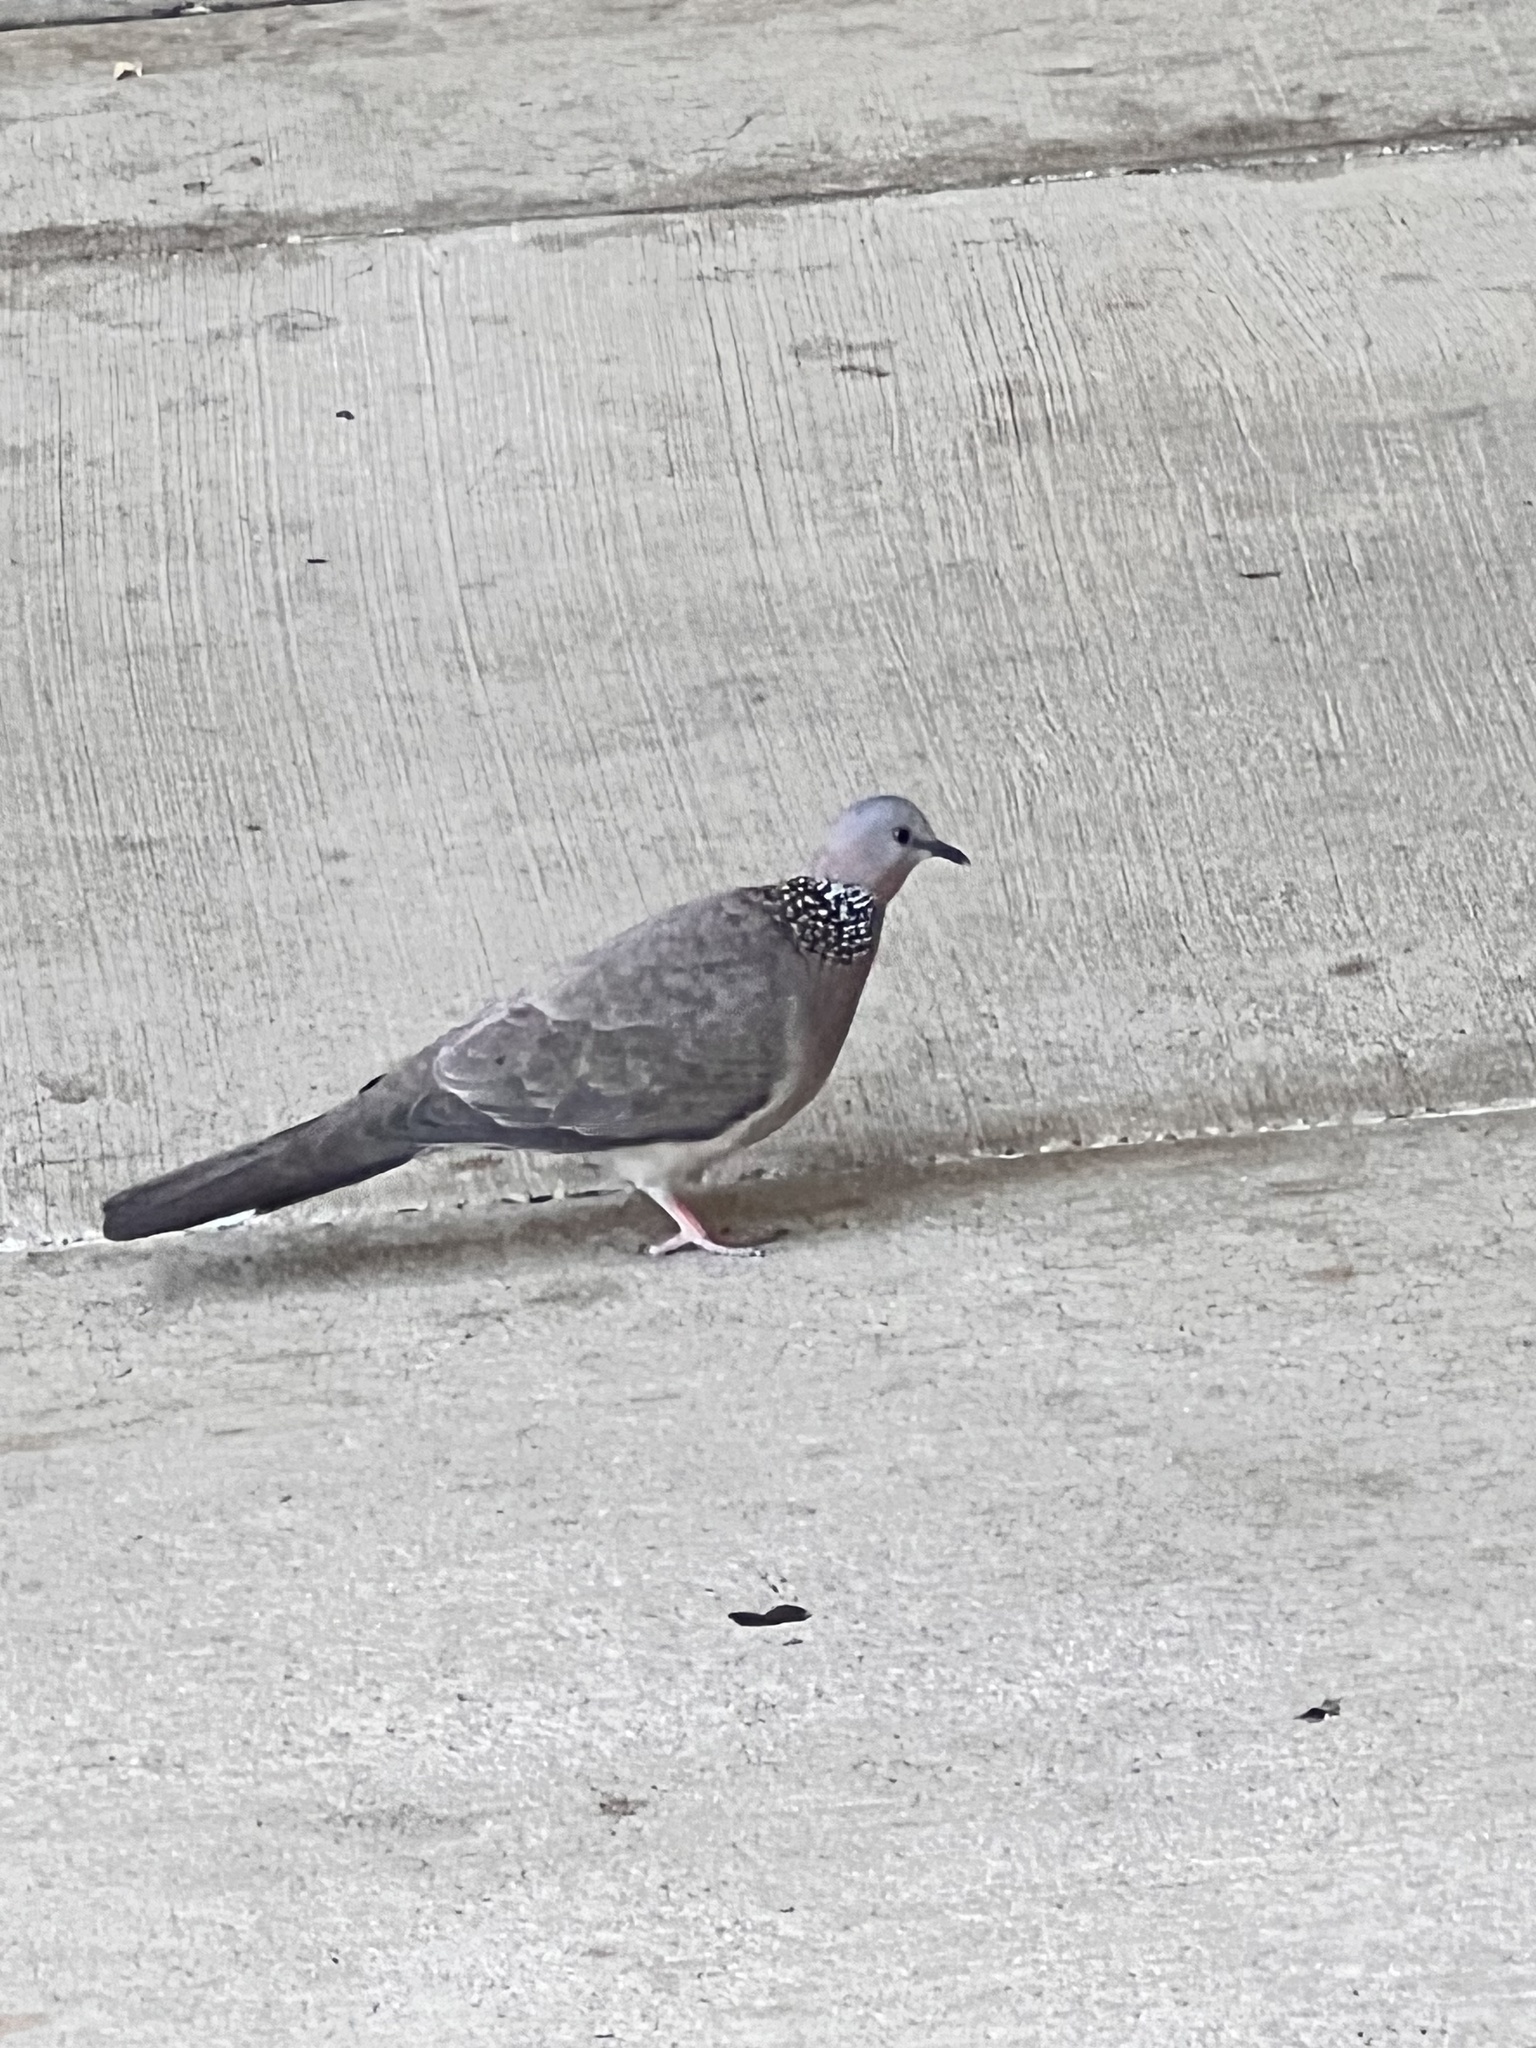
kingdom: Animalia
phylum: Chordata
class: Aves
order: Columbiformes
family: Columbidae
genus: Spilopelia
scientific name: Spilopelia chinensis
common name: Spotted dove
